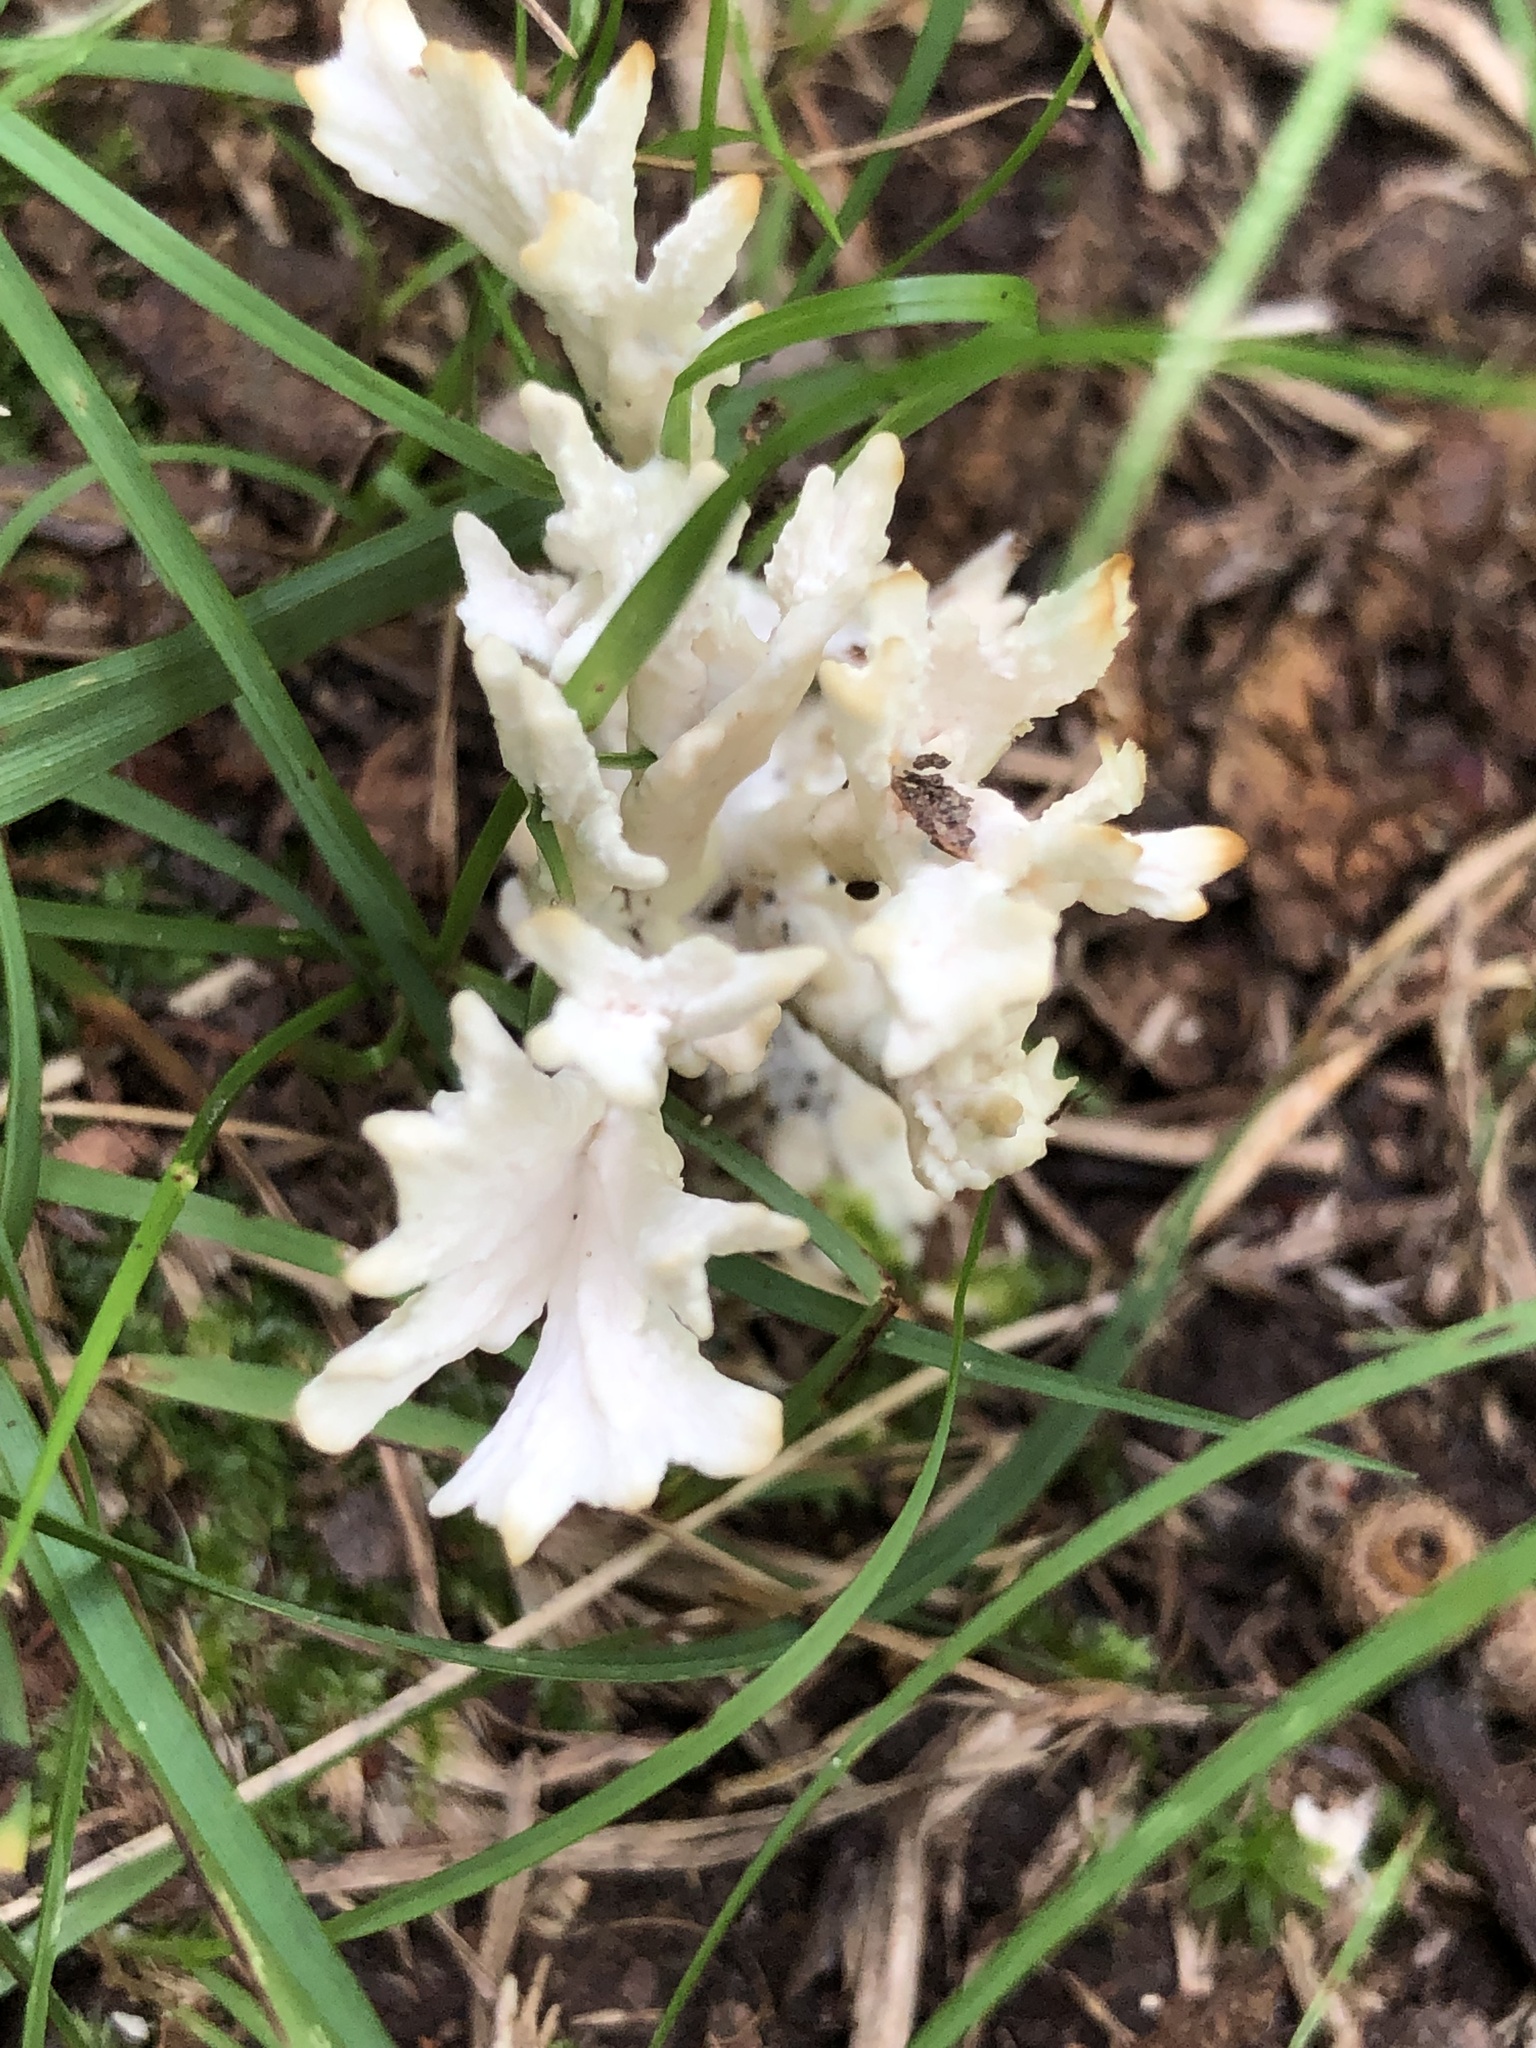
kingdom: Fungi
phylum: Basidiomycota
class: Agaricomycetes
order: Sebacinales
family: Sebacinaceae
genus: Sebacina
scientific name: Sebacina schweinitzii
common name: Jellied false coral fungus
